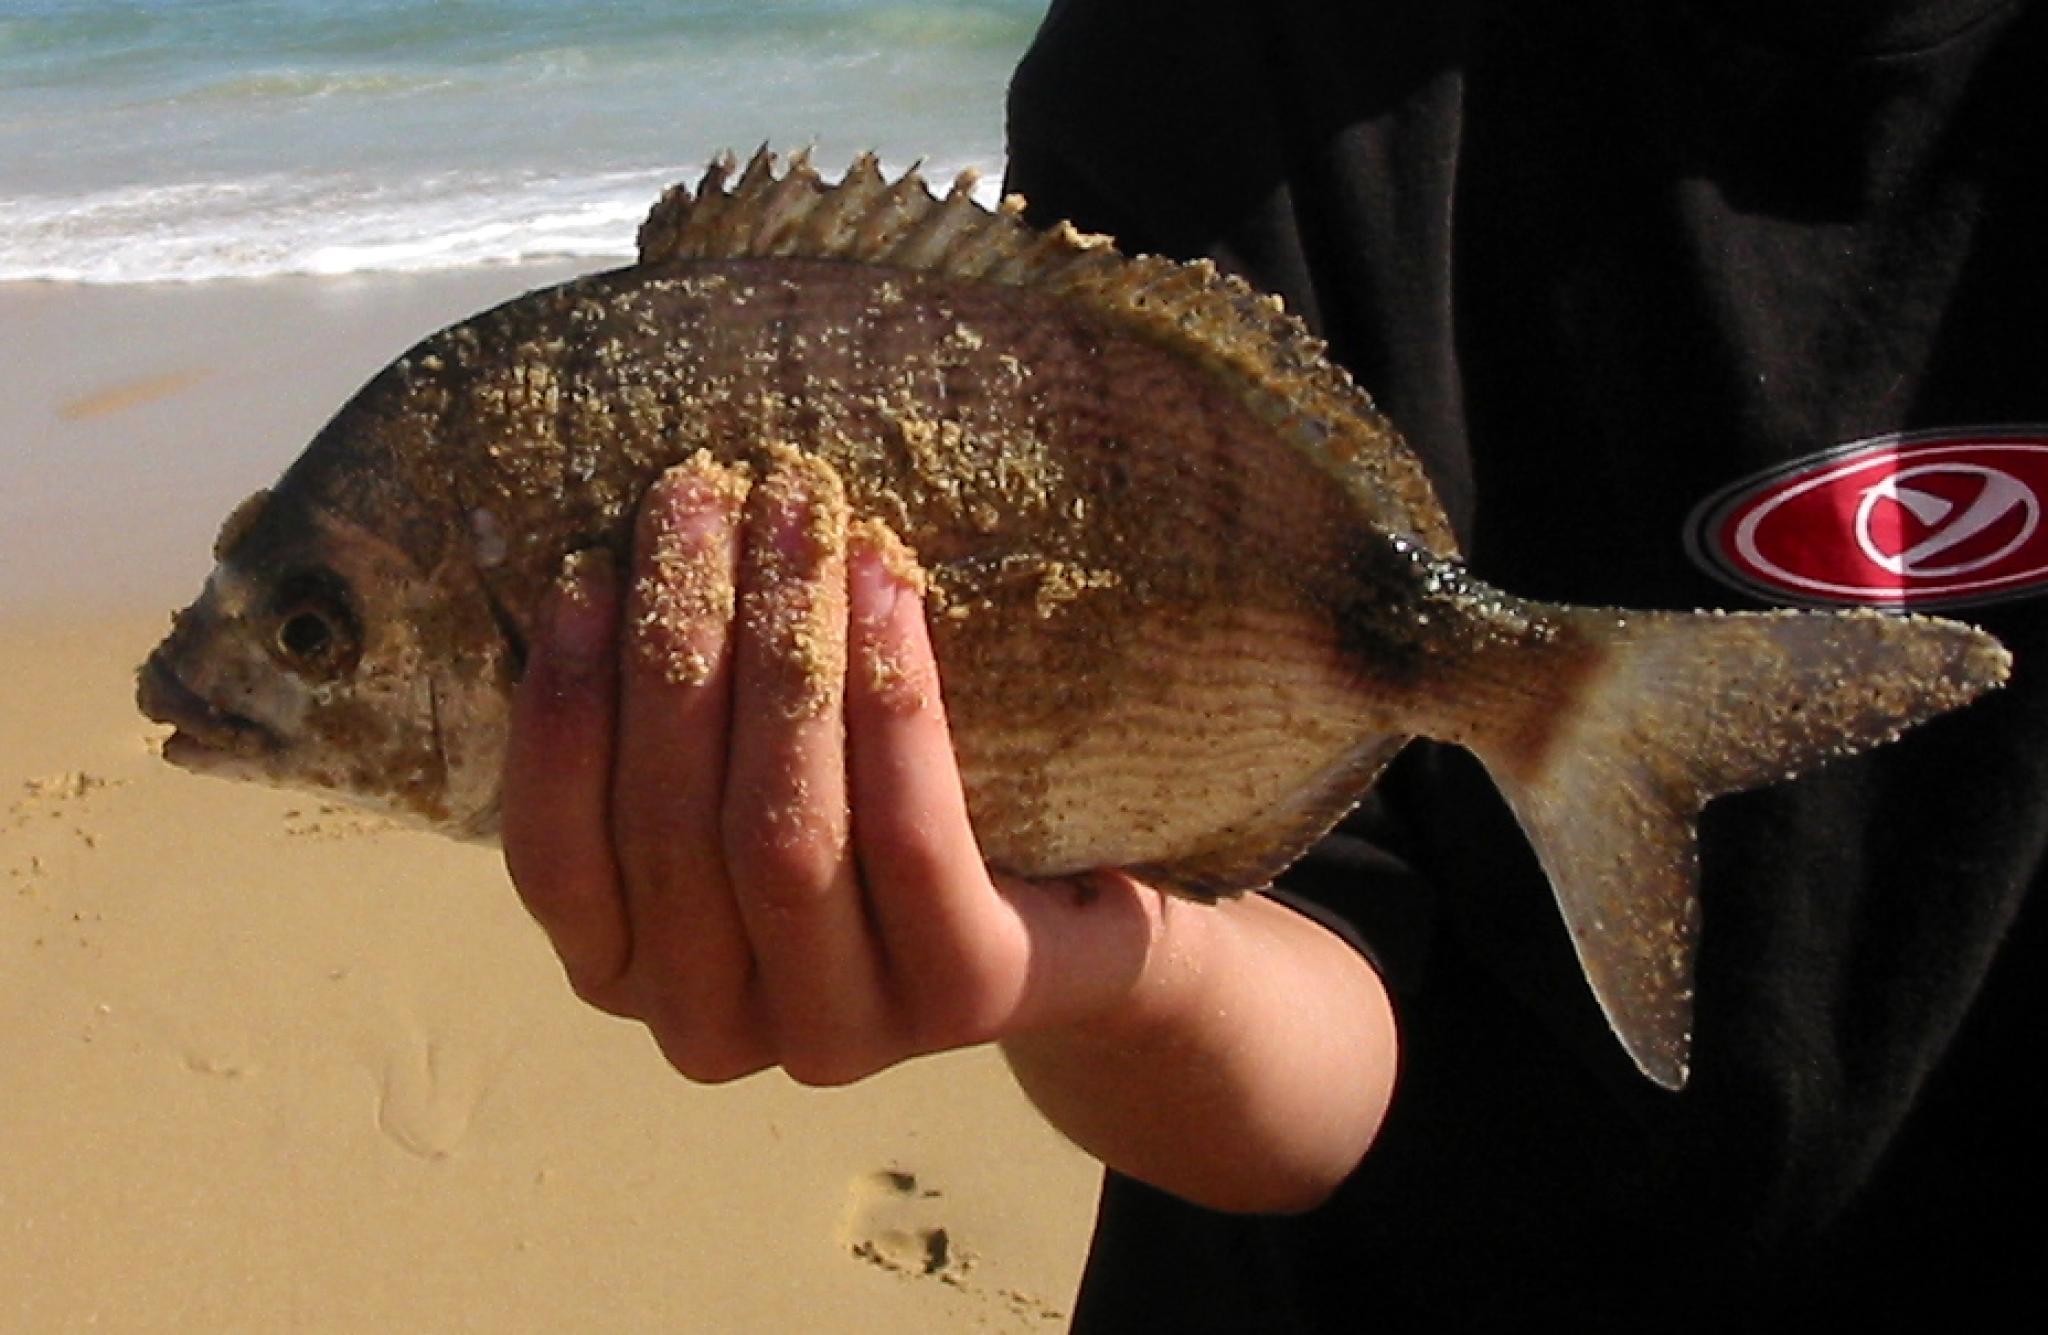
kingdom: Animalia
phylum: Chordata
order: Perciformes
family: Sparidae
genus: Diplodus
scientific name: Diplodus capensis
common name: Blacktail
